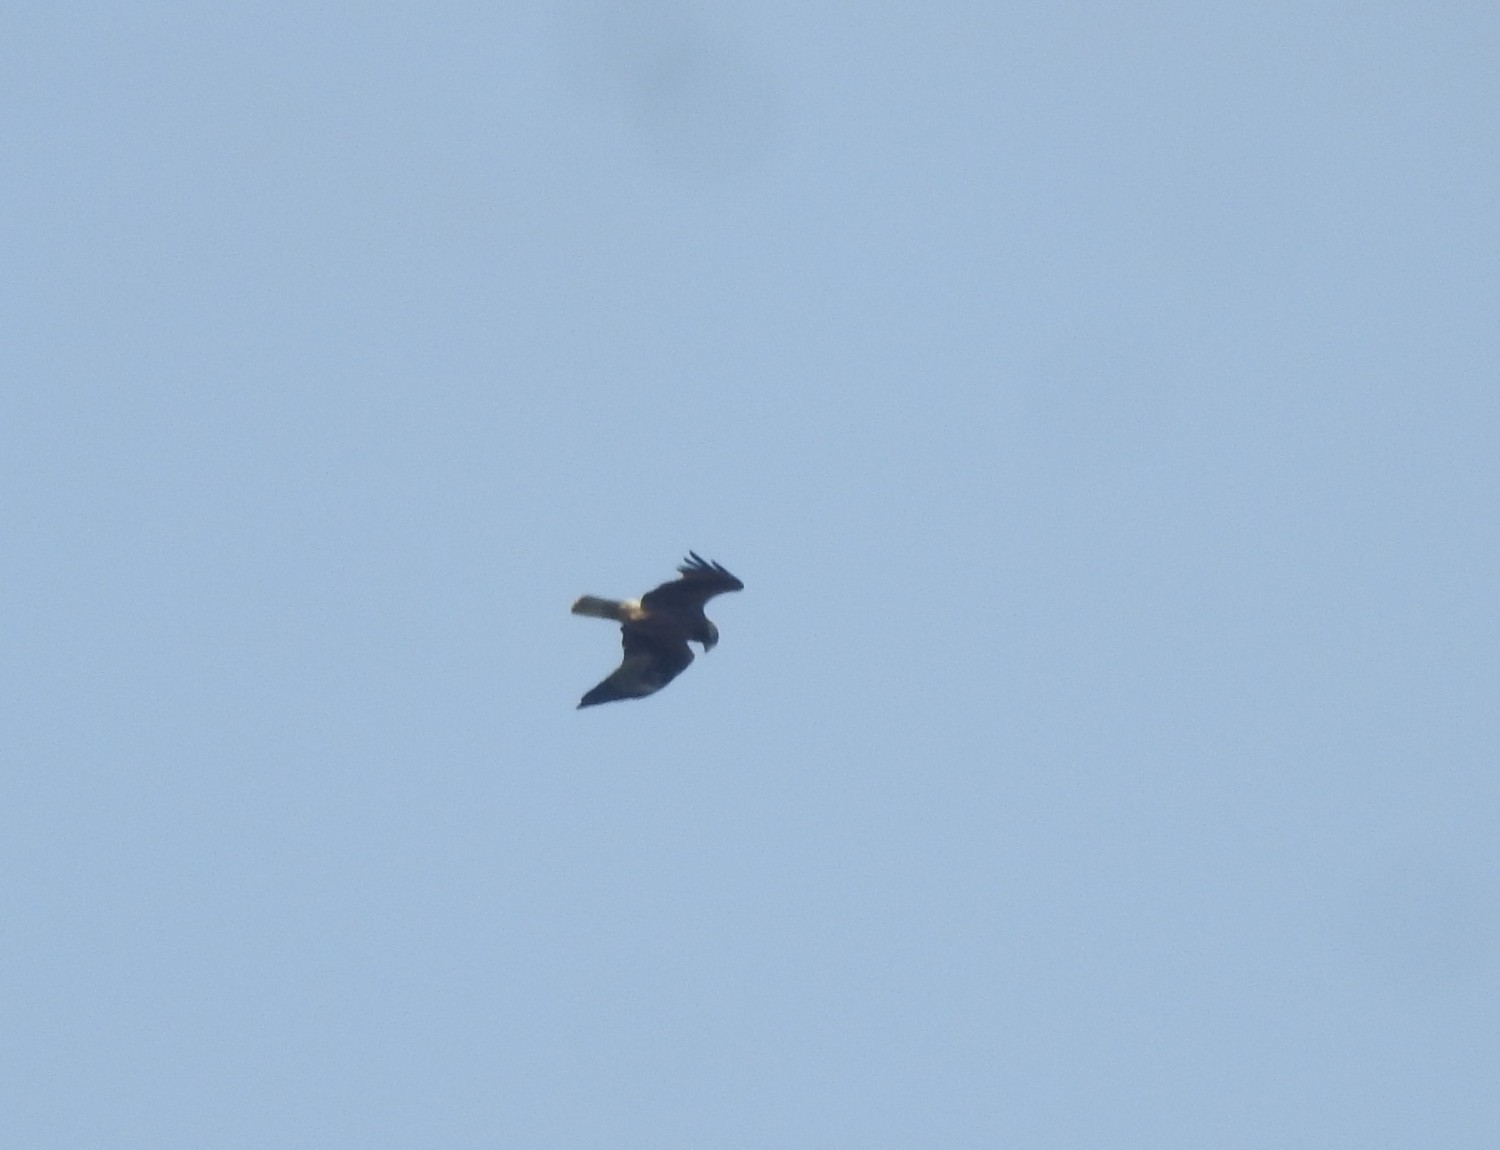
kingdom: Animalia
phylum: Chordata
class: Aves
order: Accipitriformes
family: Accipitridae
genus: Milvus
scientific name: Milvus migrans
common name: Black kite
